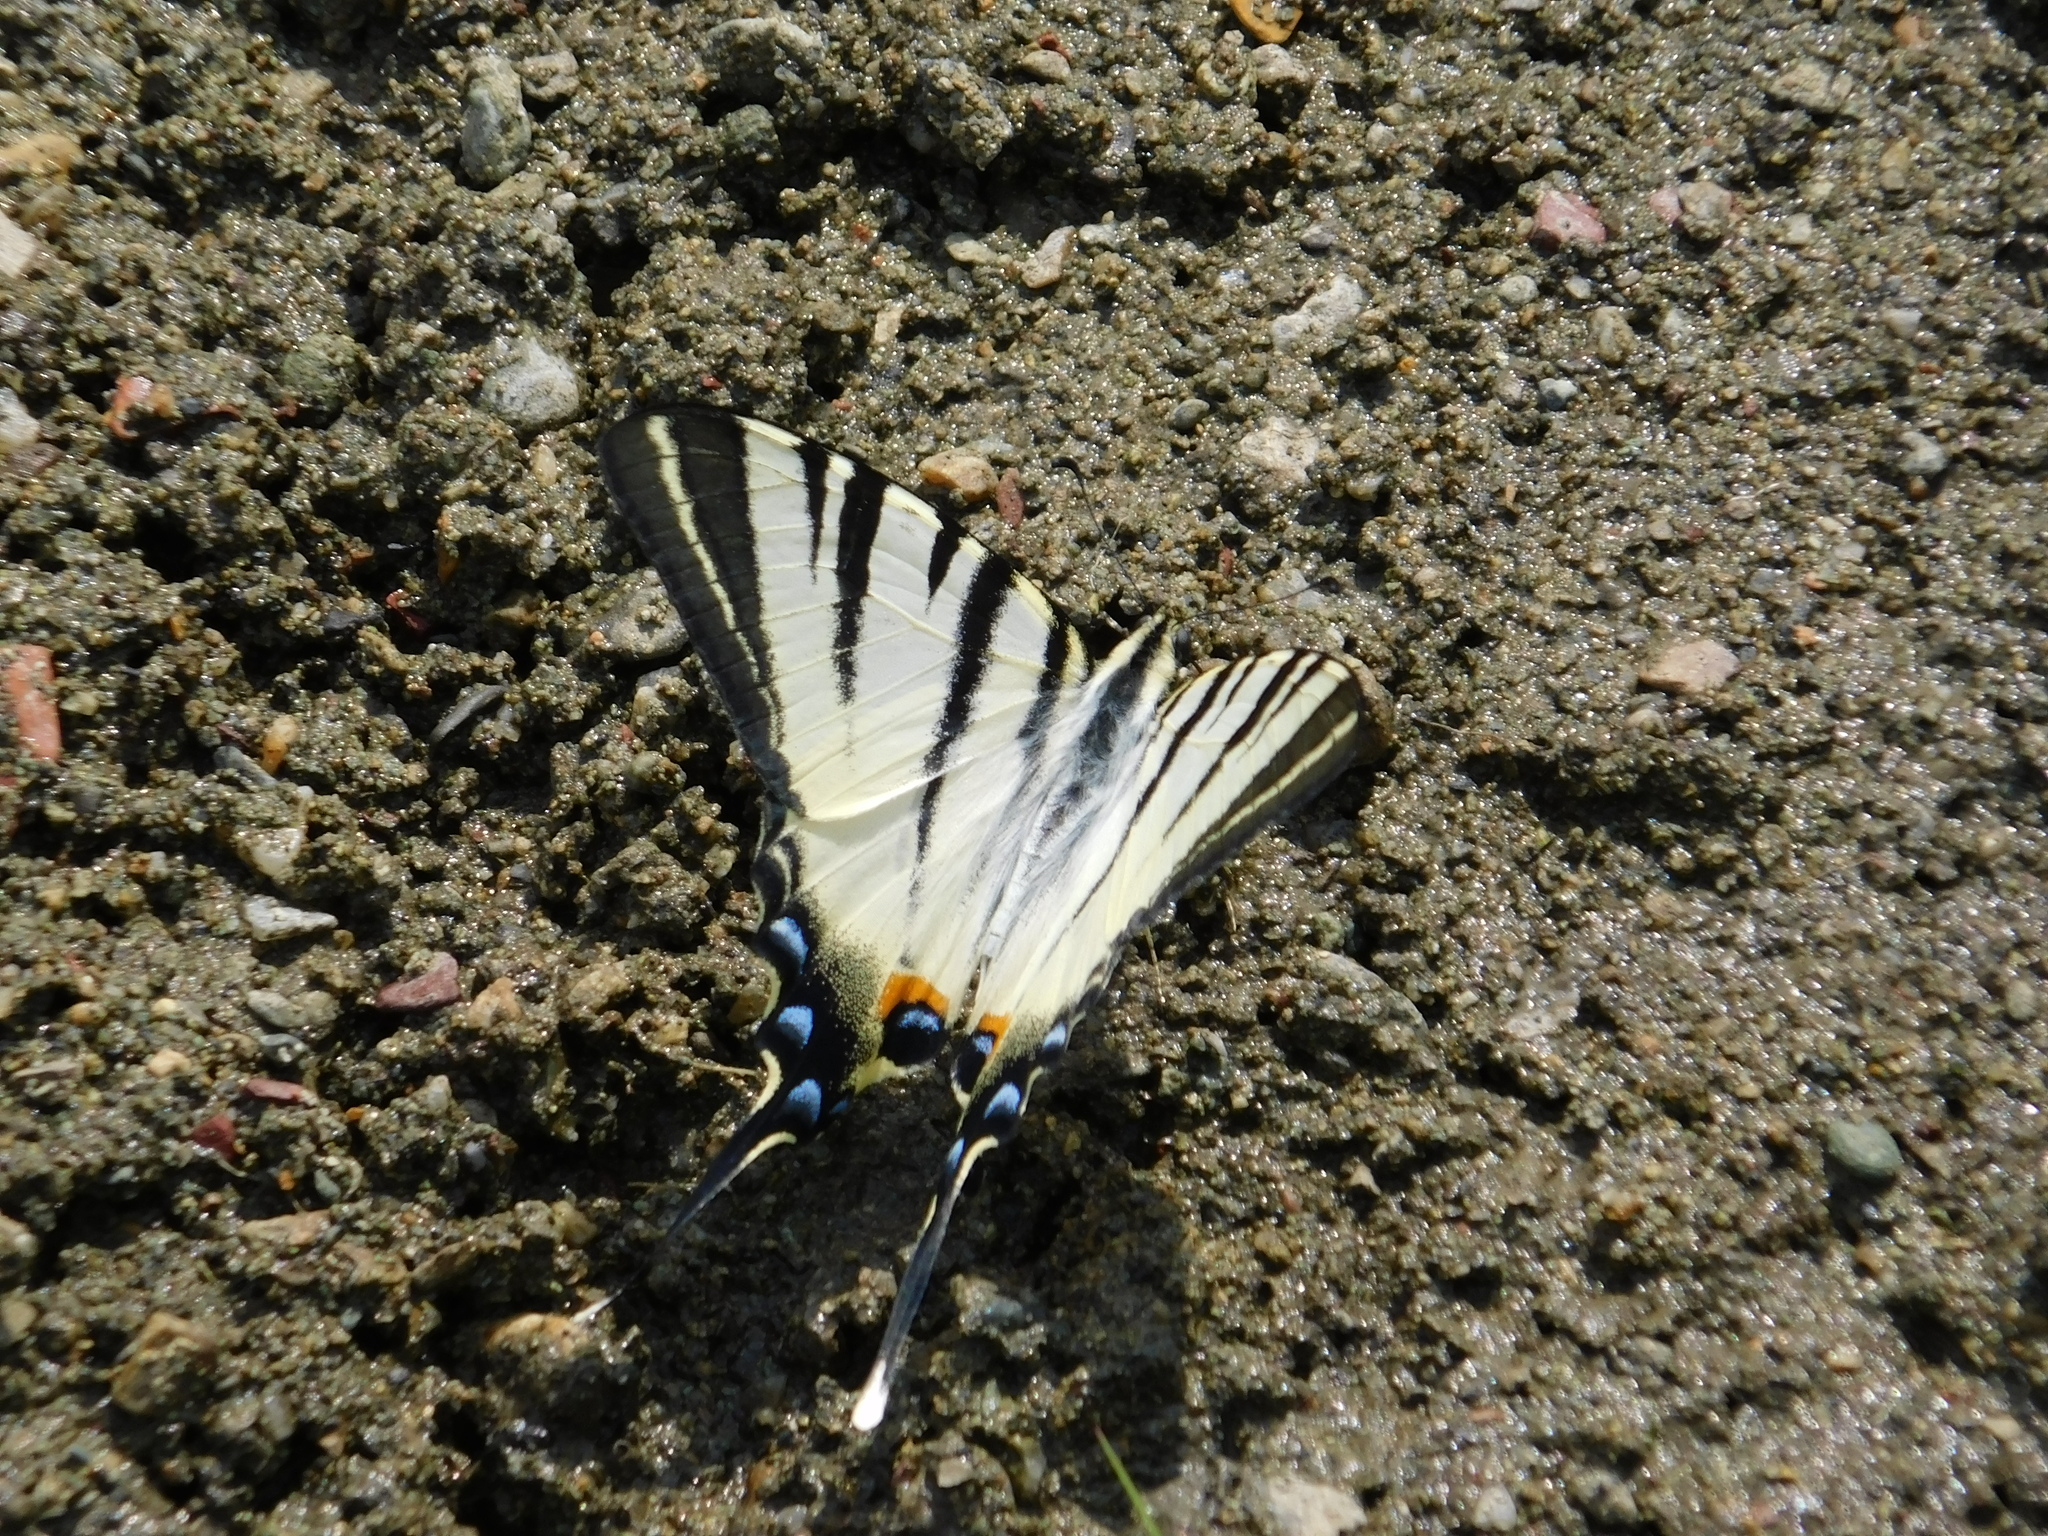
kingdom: Animalia
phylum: Arthropoda
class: Insecta
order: Lepidoptera
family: Papilionidae
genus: Iphiclides
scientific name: Iphiclides podalirius
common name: Scarce swallowtail
